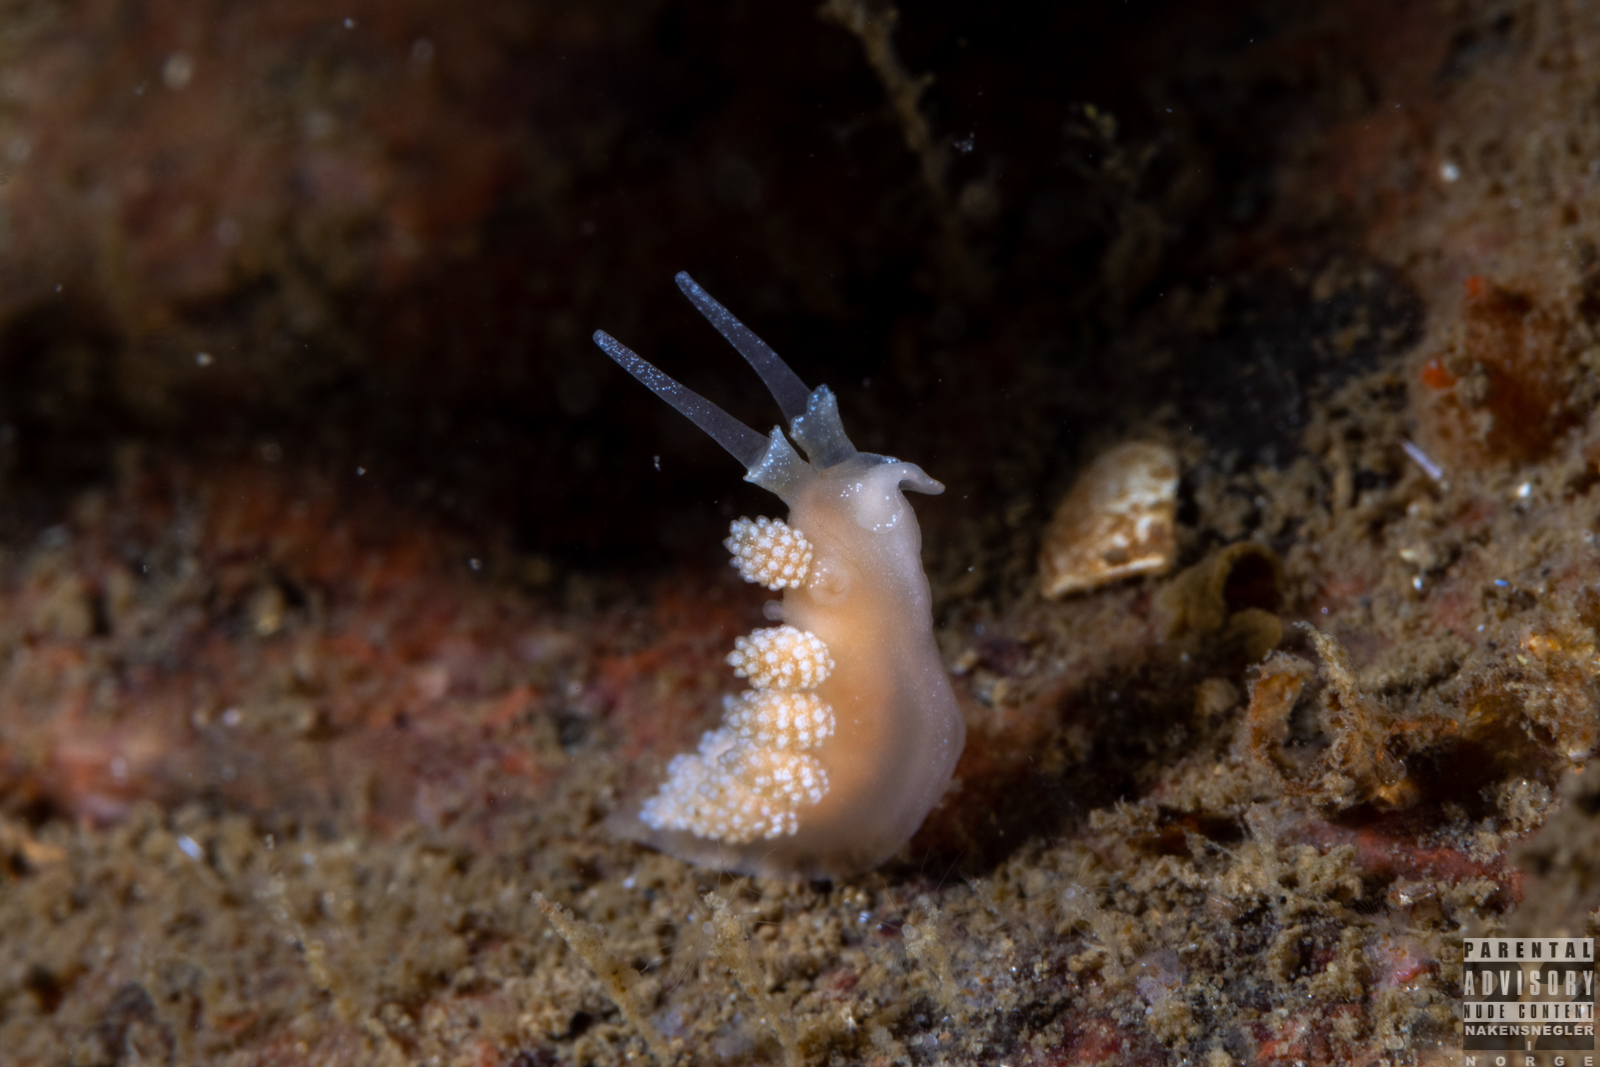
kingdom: Animalia
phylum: Mollusca
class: Gastropoda
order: Nudibranchia
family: Dotidae
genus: Doto
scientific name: Doto fragilis
